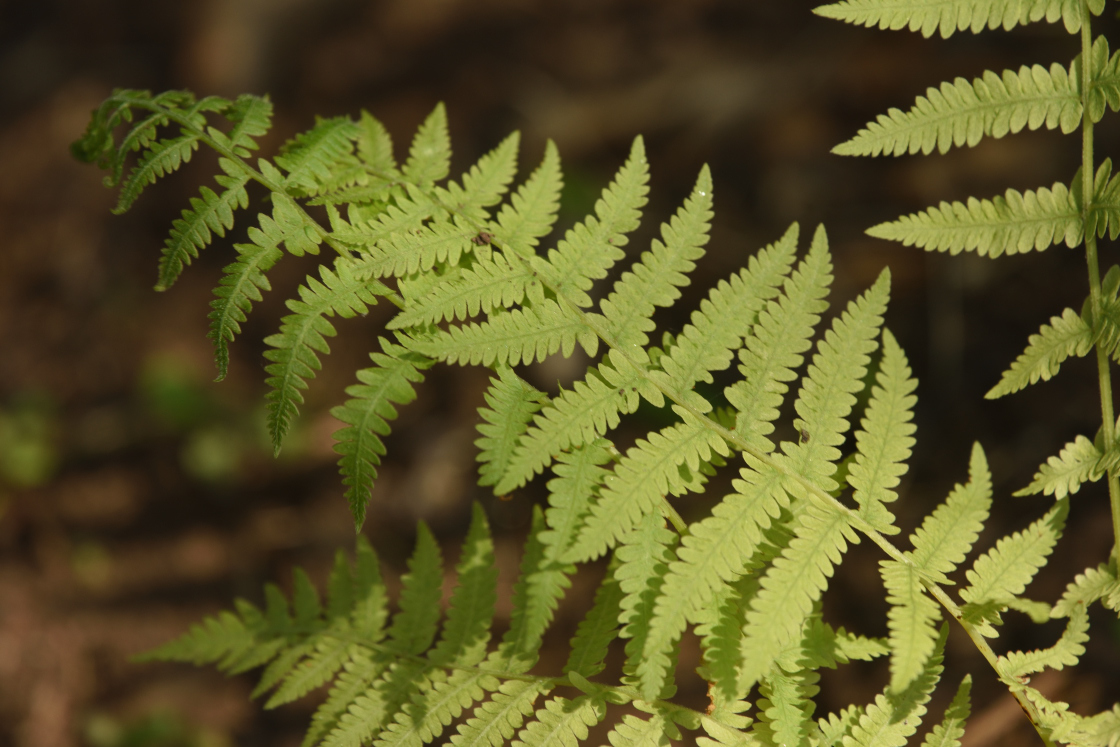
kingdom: Plantae
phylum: Tracheophyta
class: Polypodiopsida
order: Polypodiales
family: Thelypteridaceae
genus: Amauropelta
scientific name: Amauropelta noveboracensis
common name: New york fern
